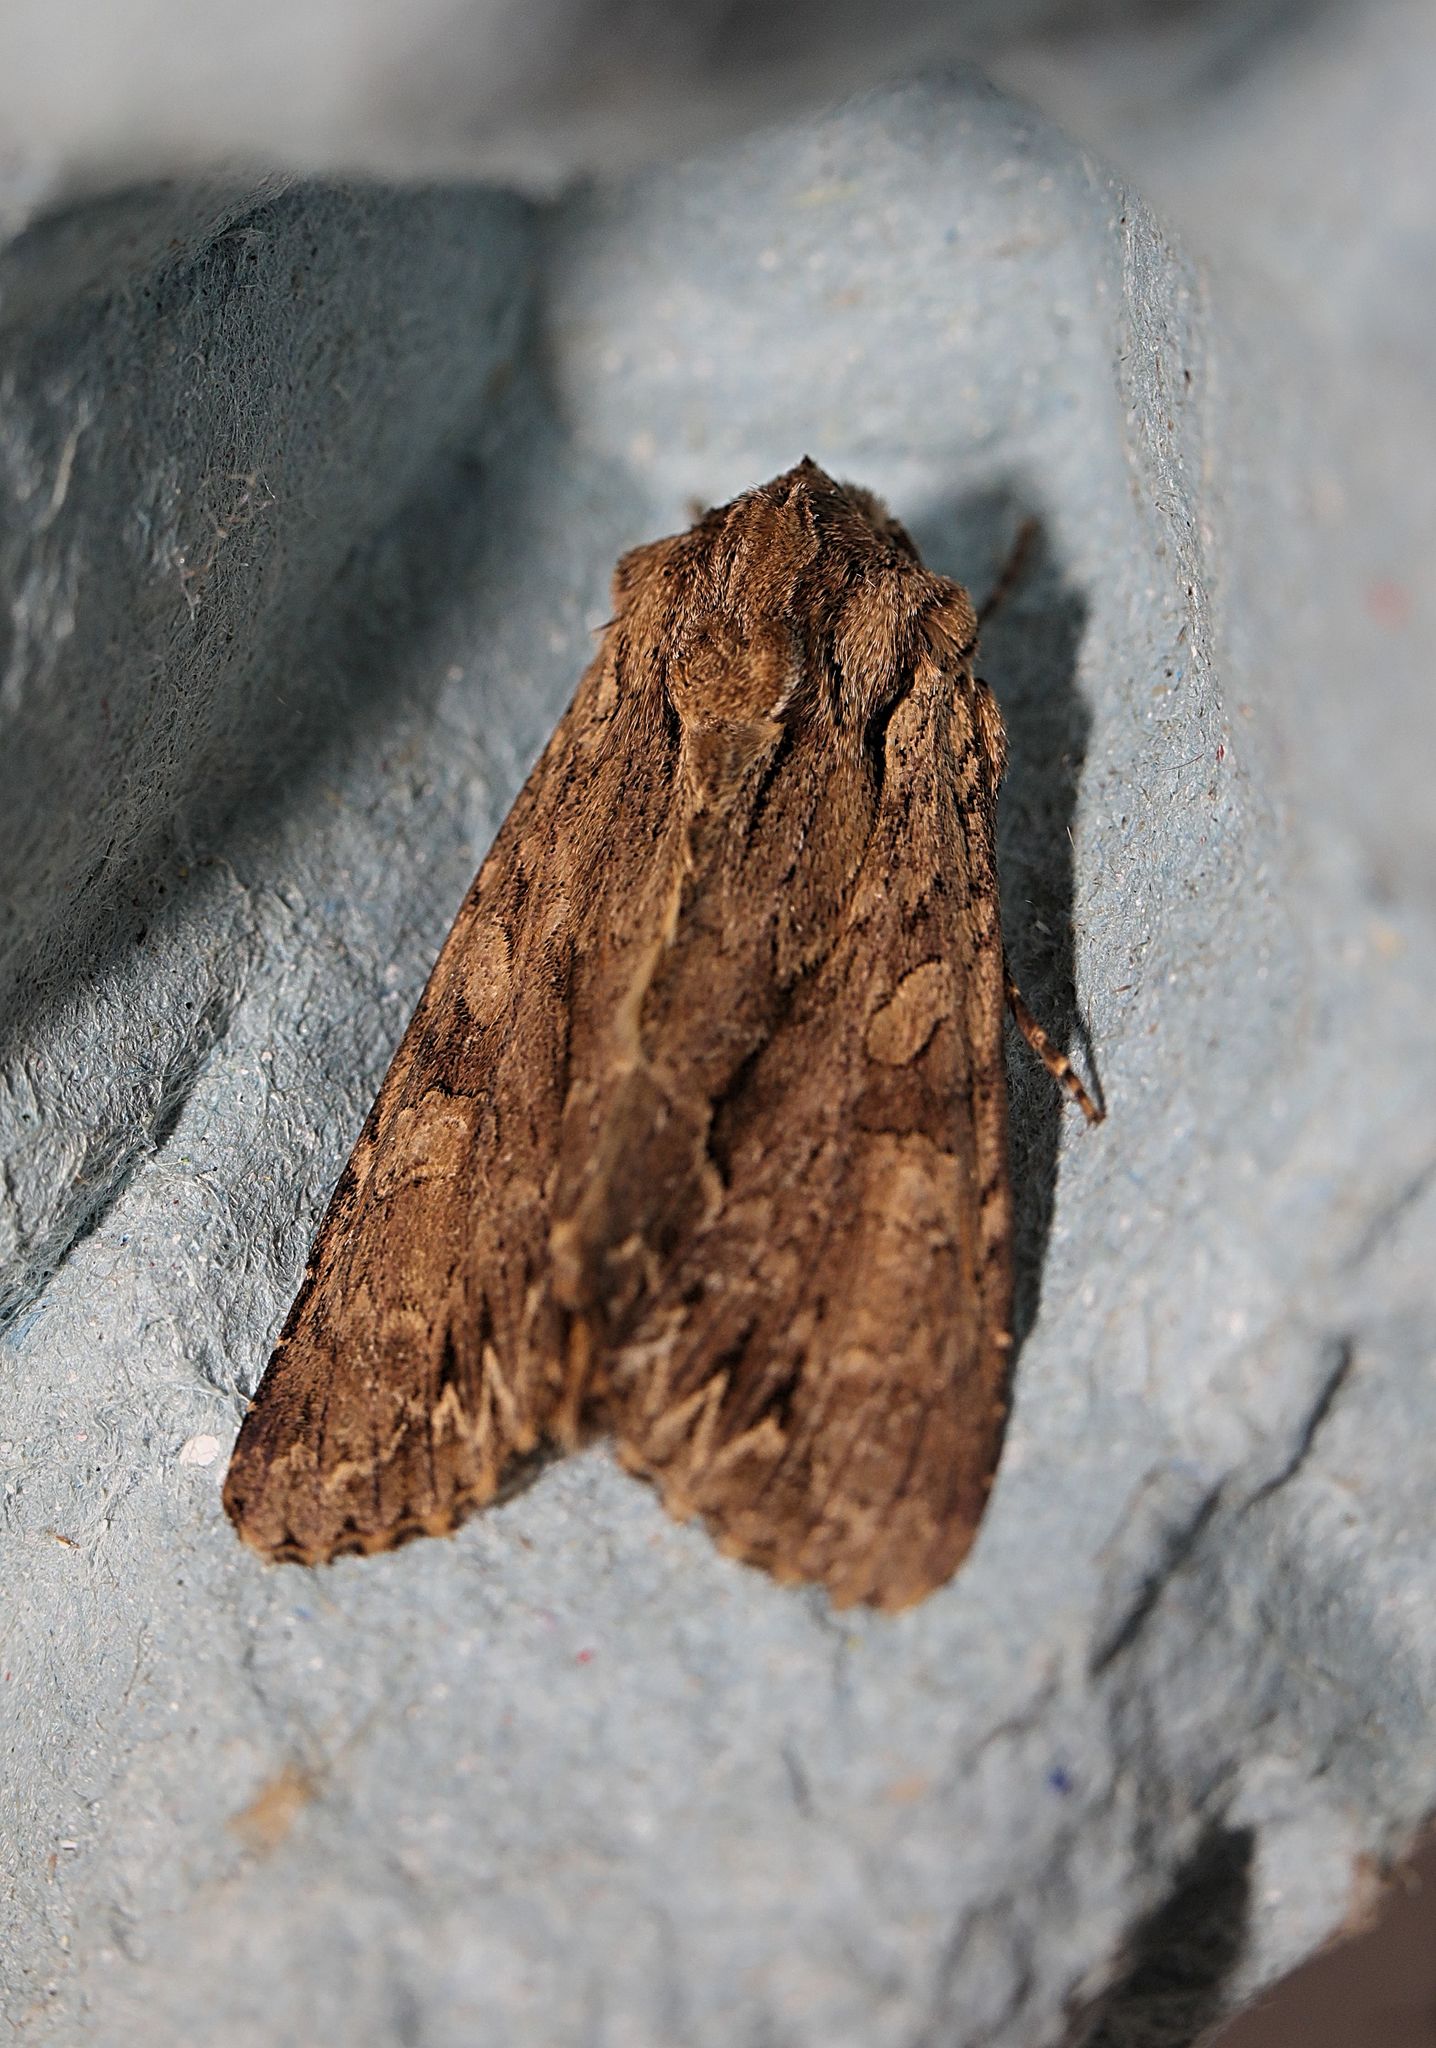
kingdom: Animalia
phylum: Arthropoda
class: Insecta
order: Lepidoptera
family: Noctuidae
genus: Apamea
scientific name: Apamea monoglypha
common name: Dark arches
